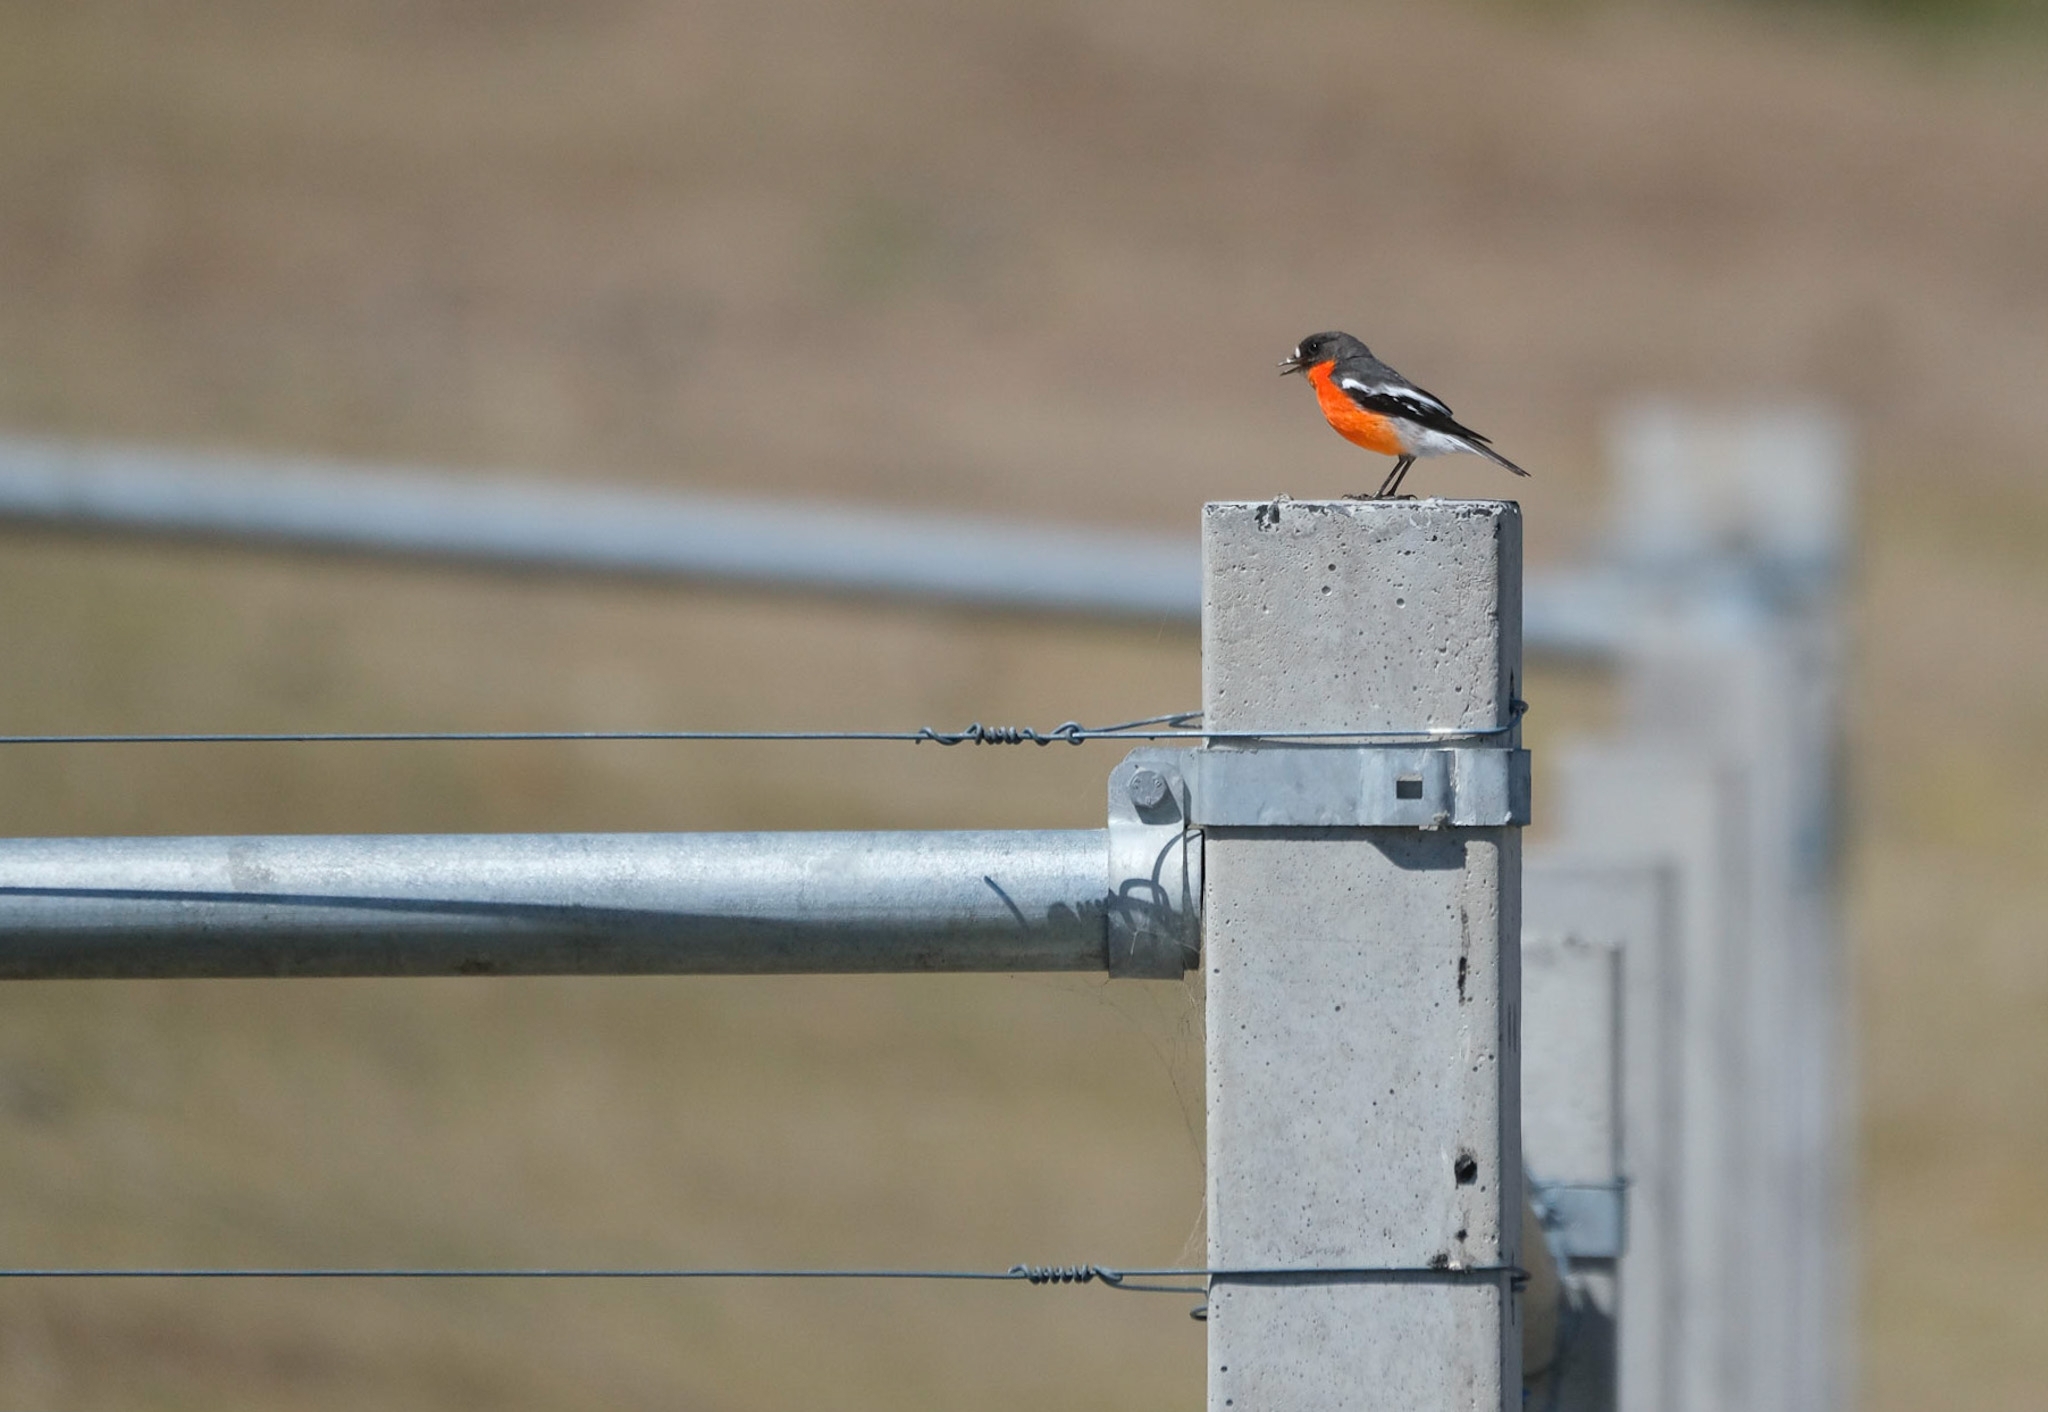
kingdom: Animalia
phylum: Chordata
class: Aves
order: Passeriformes
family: Petroicidae
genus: Petroica
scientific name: Petroica phoenicea
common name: Flame robin
